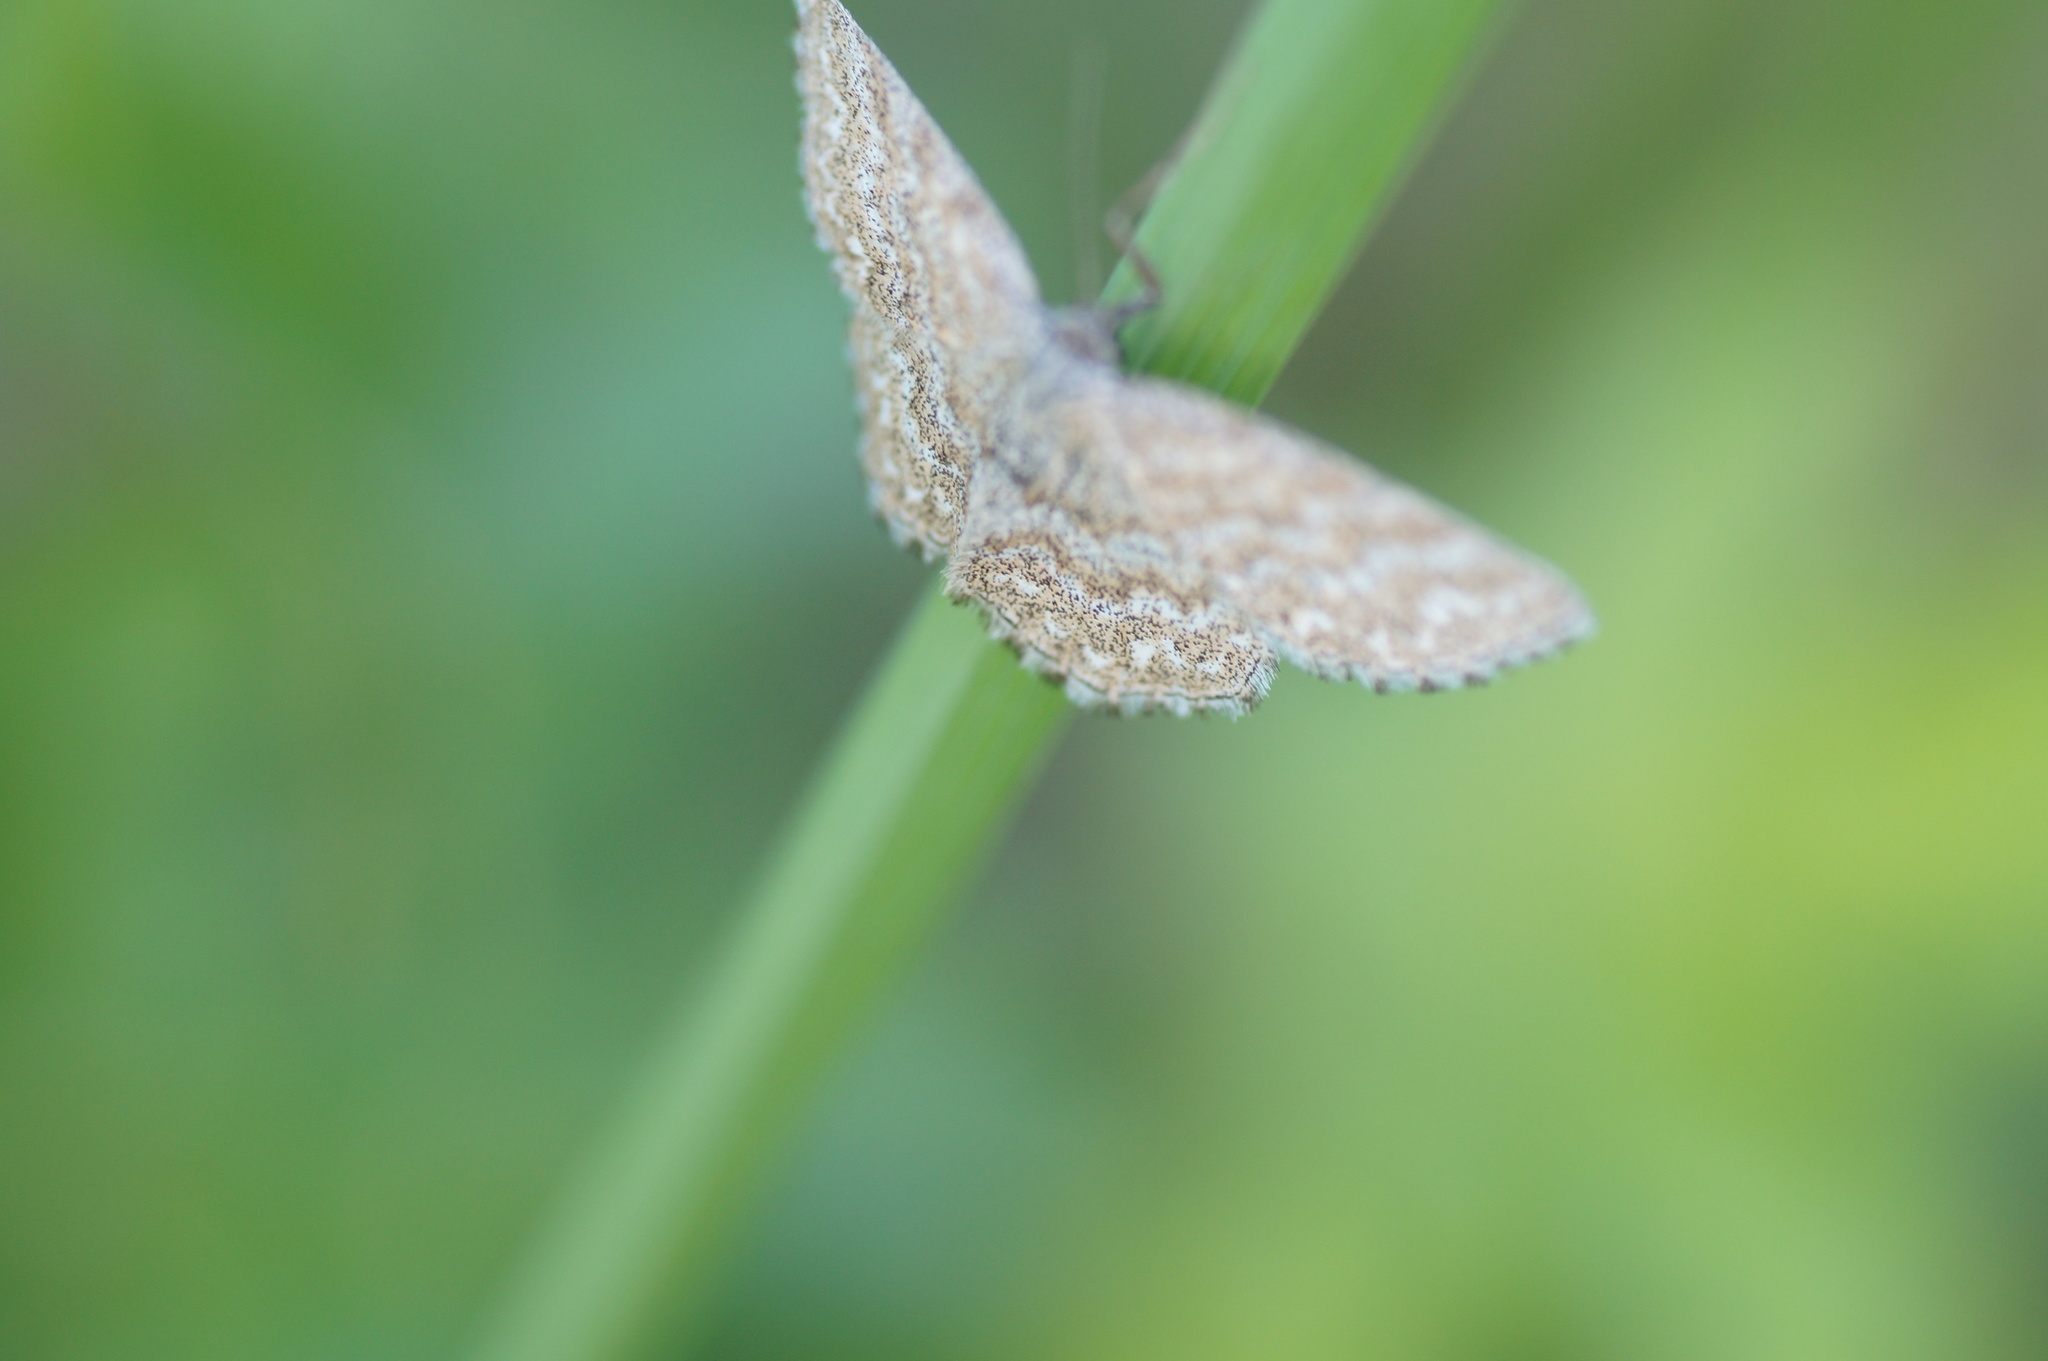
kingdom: Animalia
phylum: Arthropoda
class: Insecta
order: Lepidoptera
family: Geometridae
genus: Scopula
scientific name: Scopula immorata
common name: Lewes wave
